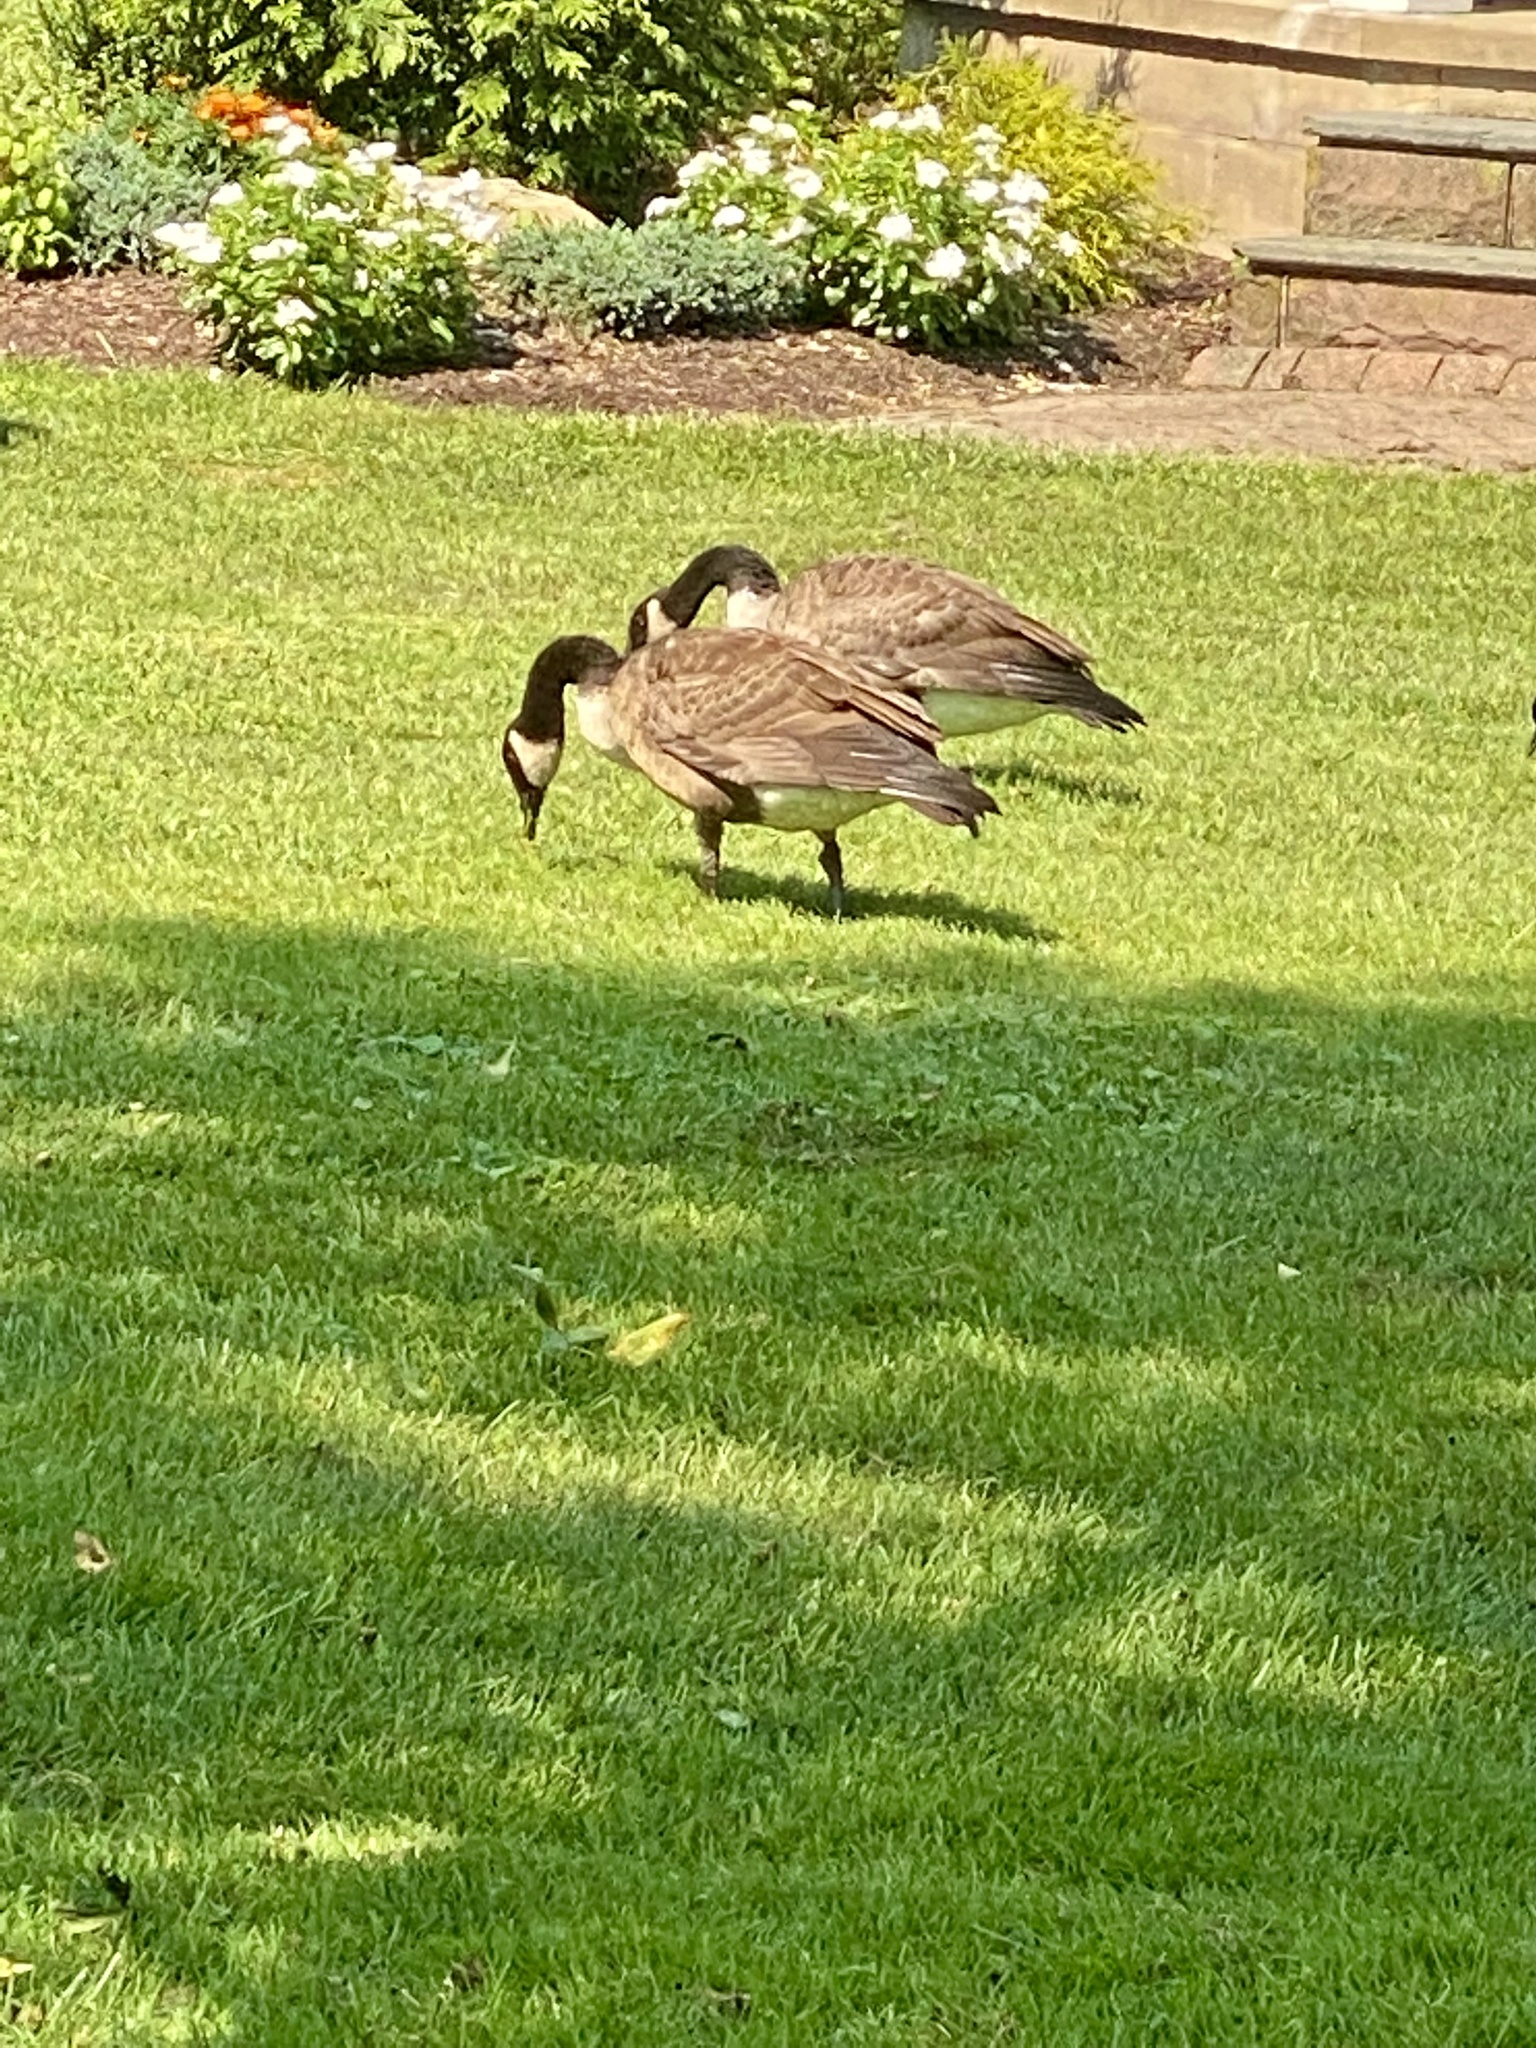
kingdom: Animalia
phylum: Chordata
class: Aves
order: Anseriformes
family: Anatidae
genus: Branta
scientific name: Branta canadensis
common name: Canada goose
